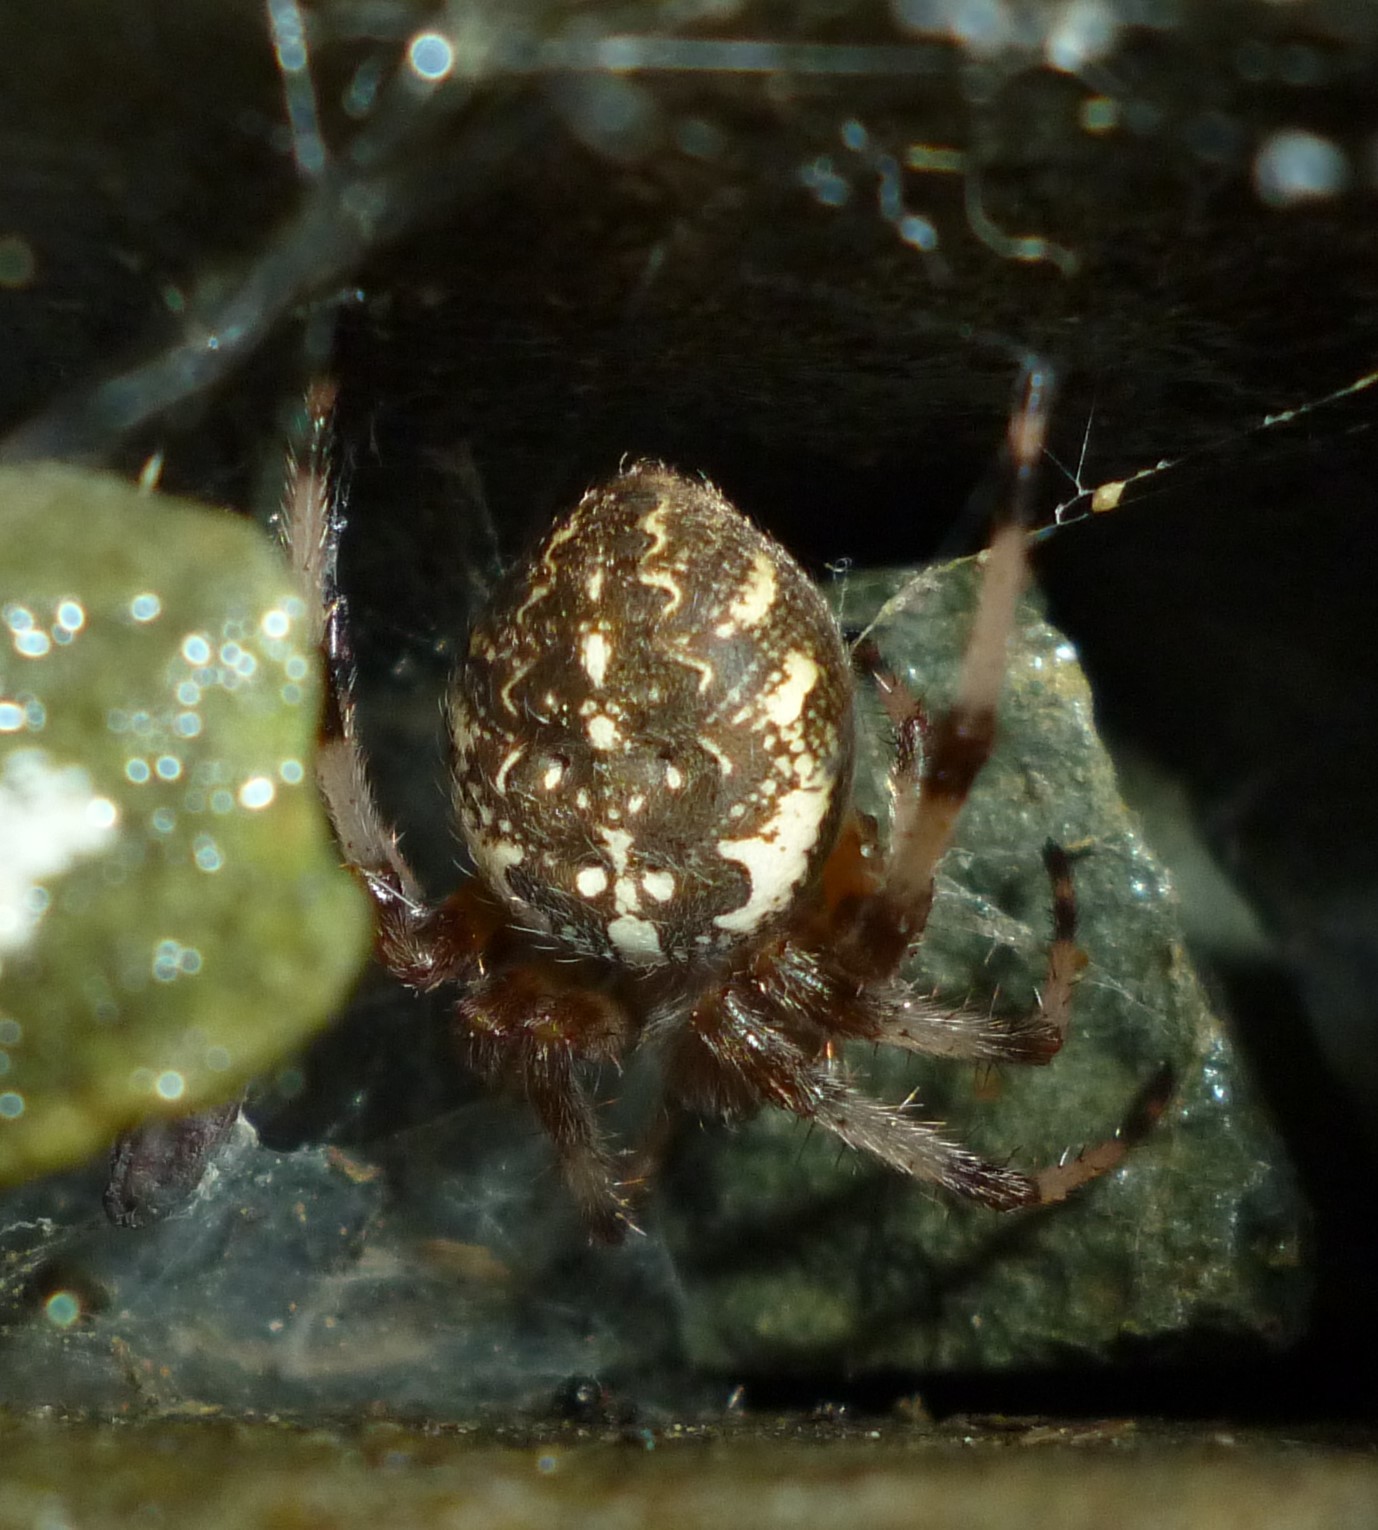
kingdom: Animalia
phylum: Arthropoda
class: Arachnida
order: Araneae
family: Araneidae
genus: Araneus
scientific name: Araneus marmoreus
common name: Marbled orbweaver
